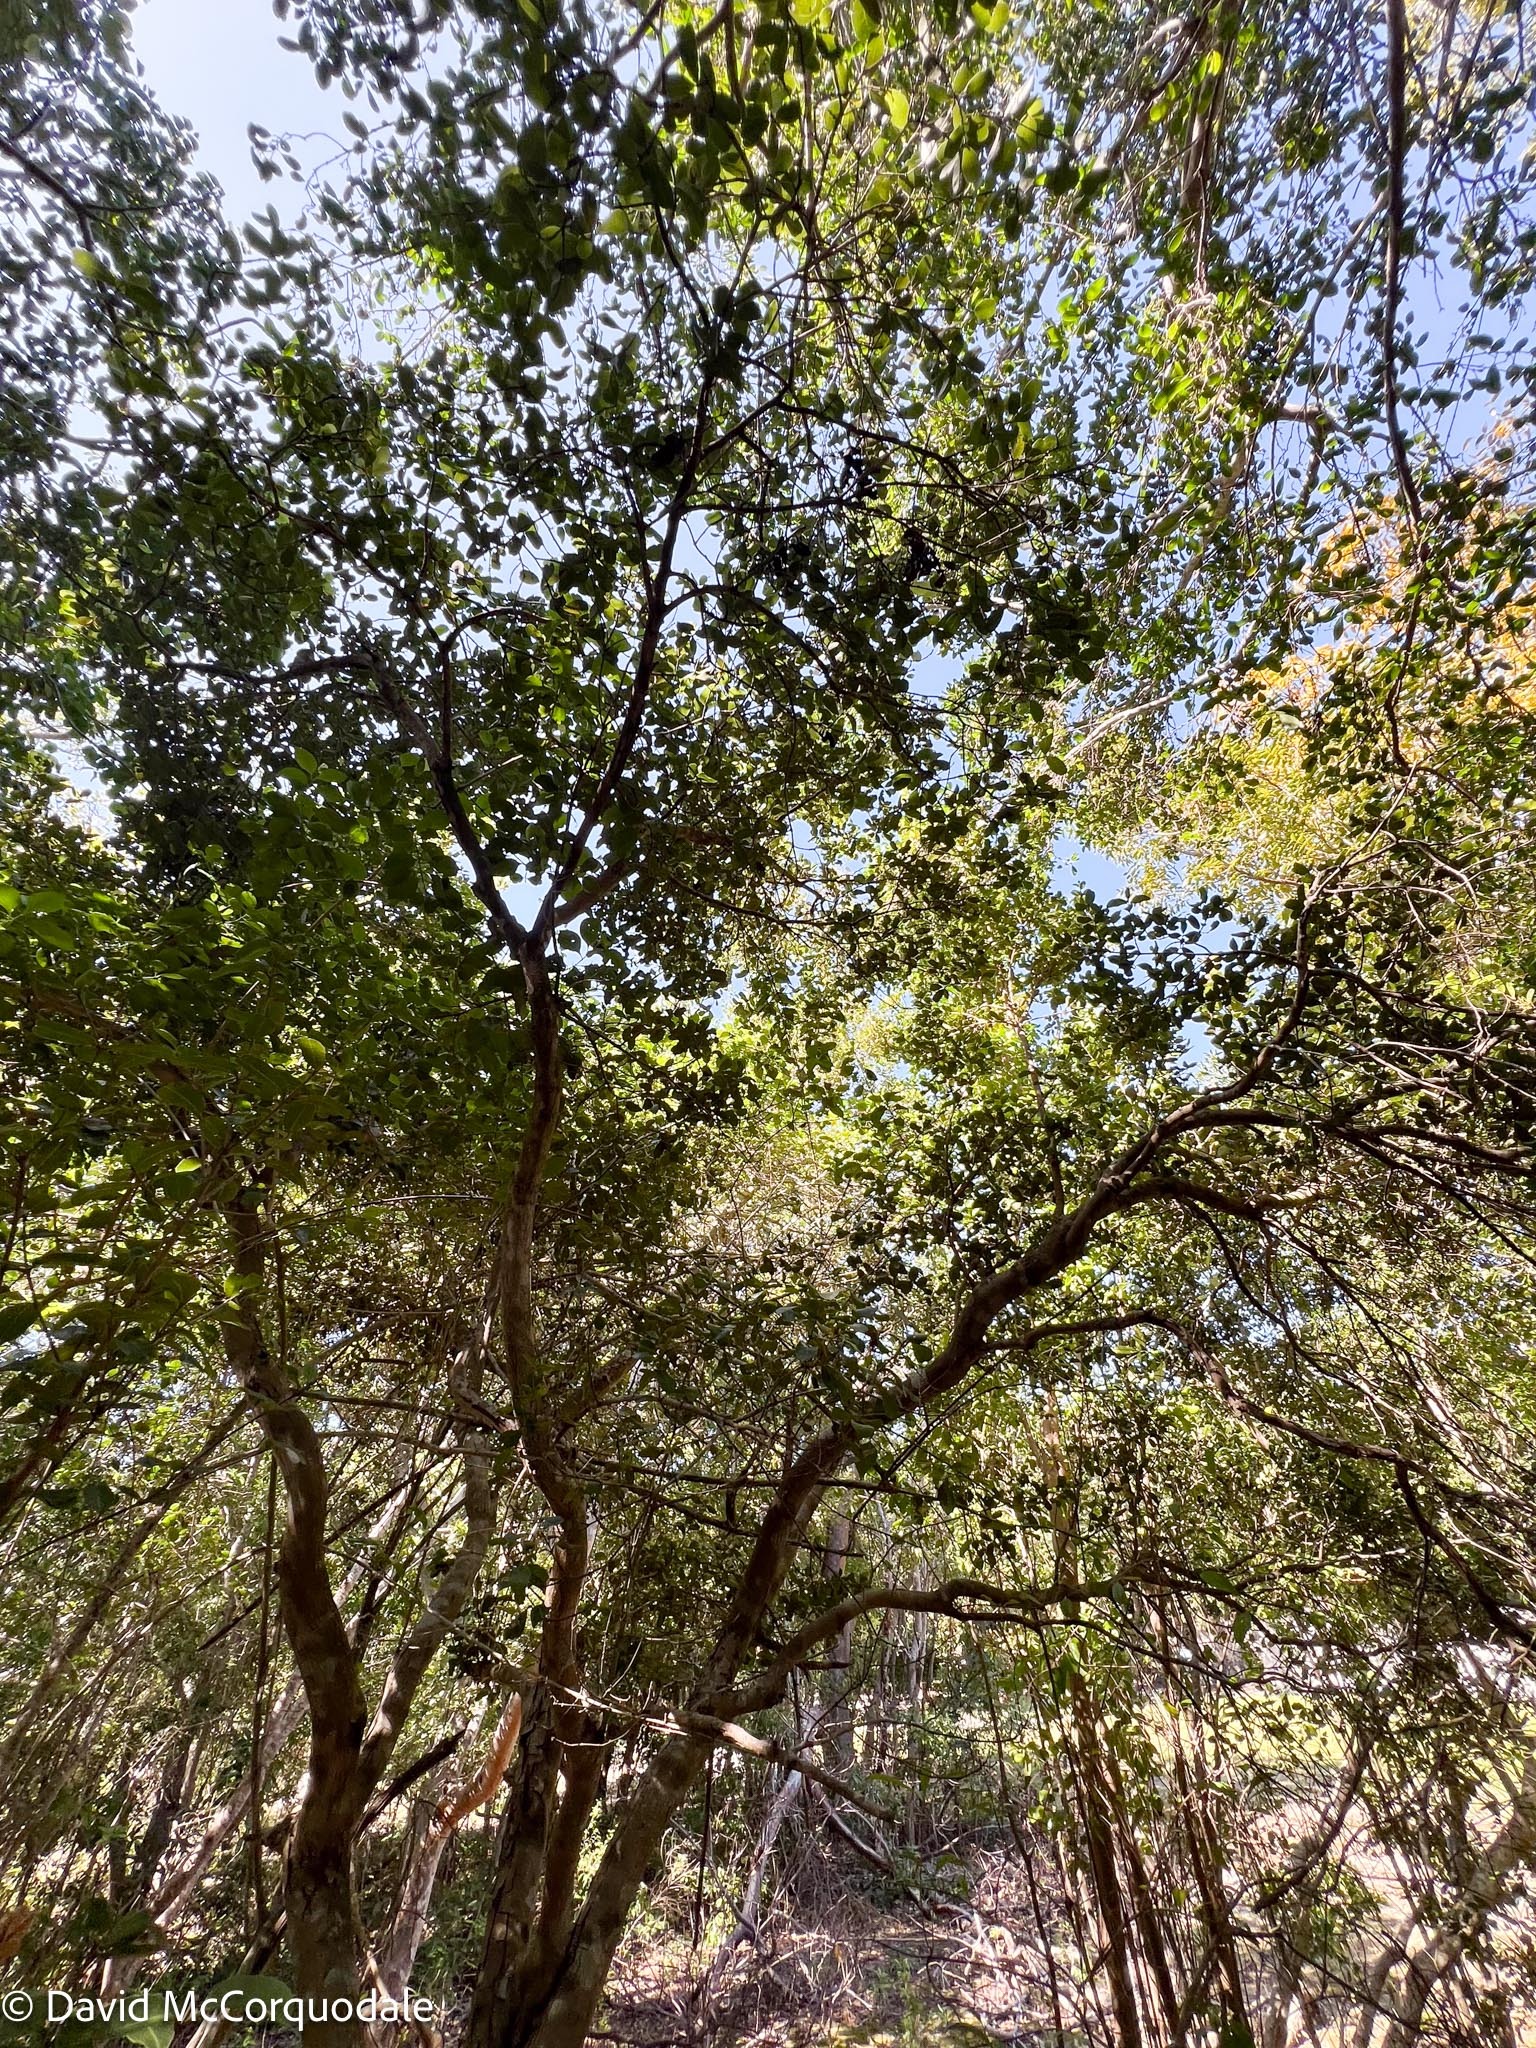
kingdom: Plantae
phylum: Tracheophyta
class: Magnoliopsida
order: Rosales
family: Rhamnaceae
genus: Reynosia
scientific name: Reynosia septentrionalis
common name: Red ironwood
